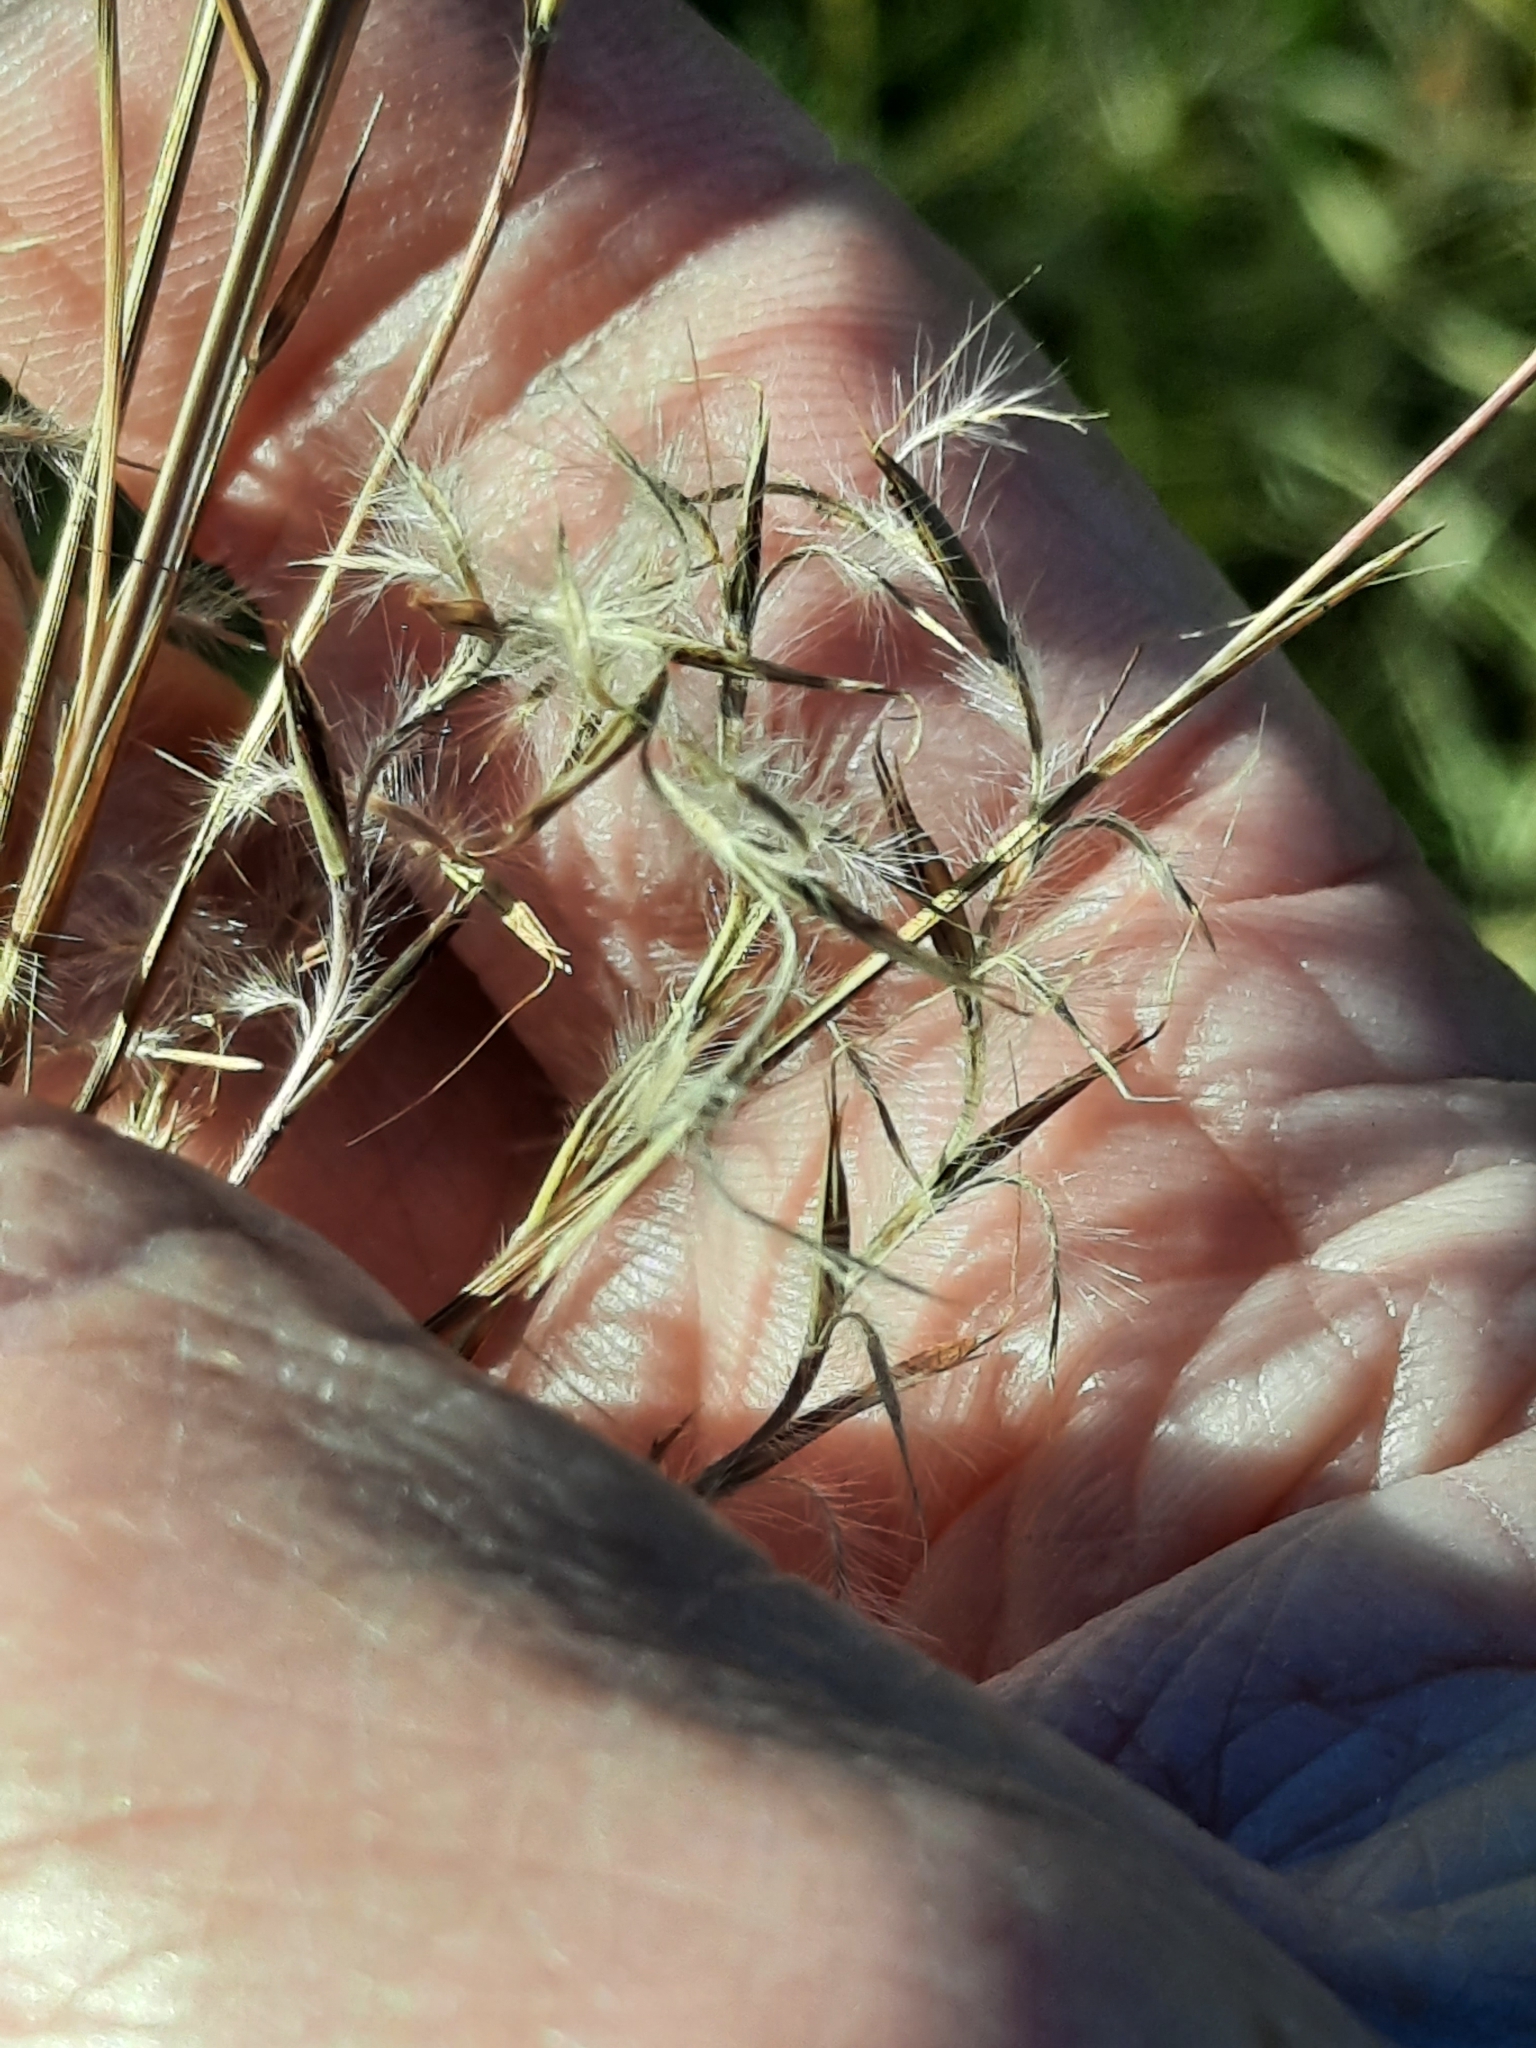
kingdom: Plantae
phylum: Tracheophyta
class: Liliopsida
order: Poales
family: Poaceae
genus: Schizachyrium
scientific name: Schizachyrium scoparium
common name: Little bluestem
